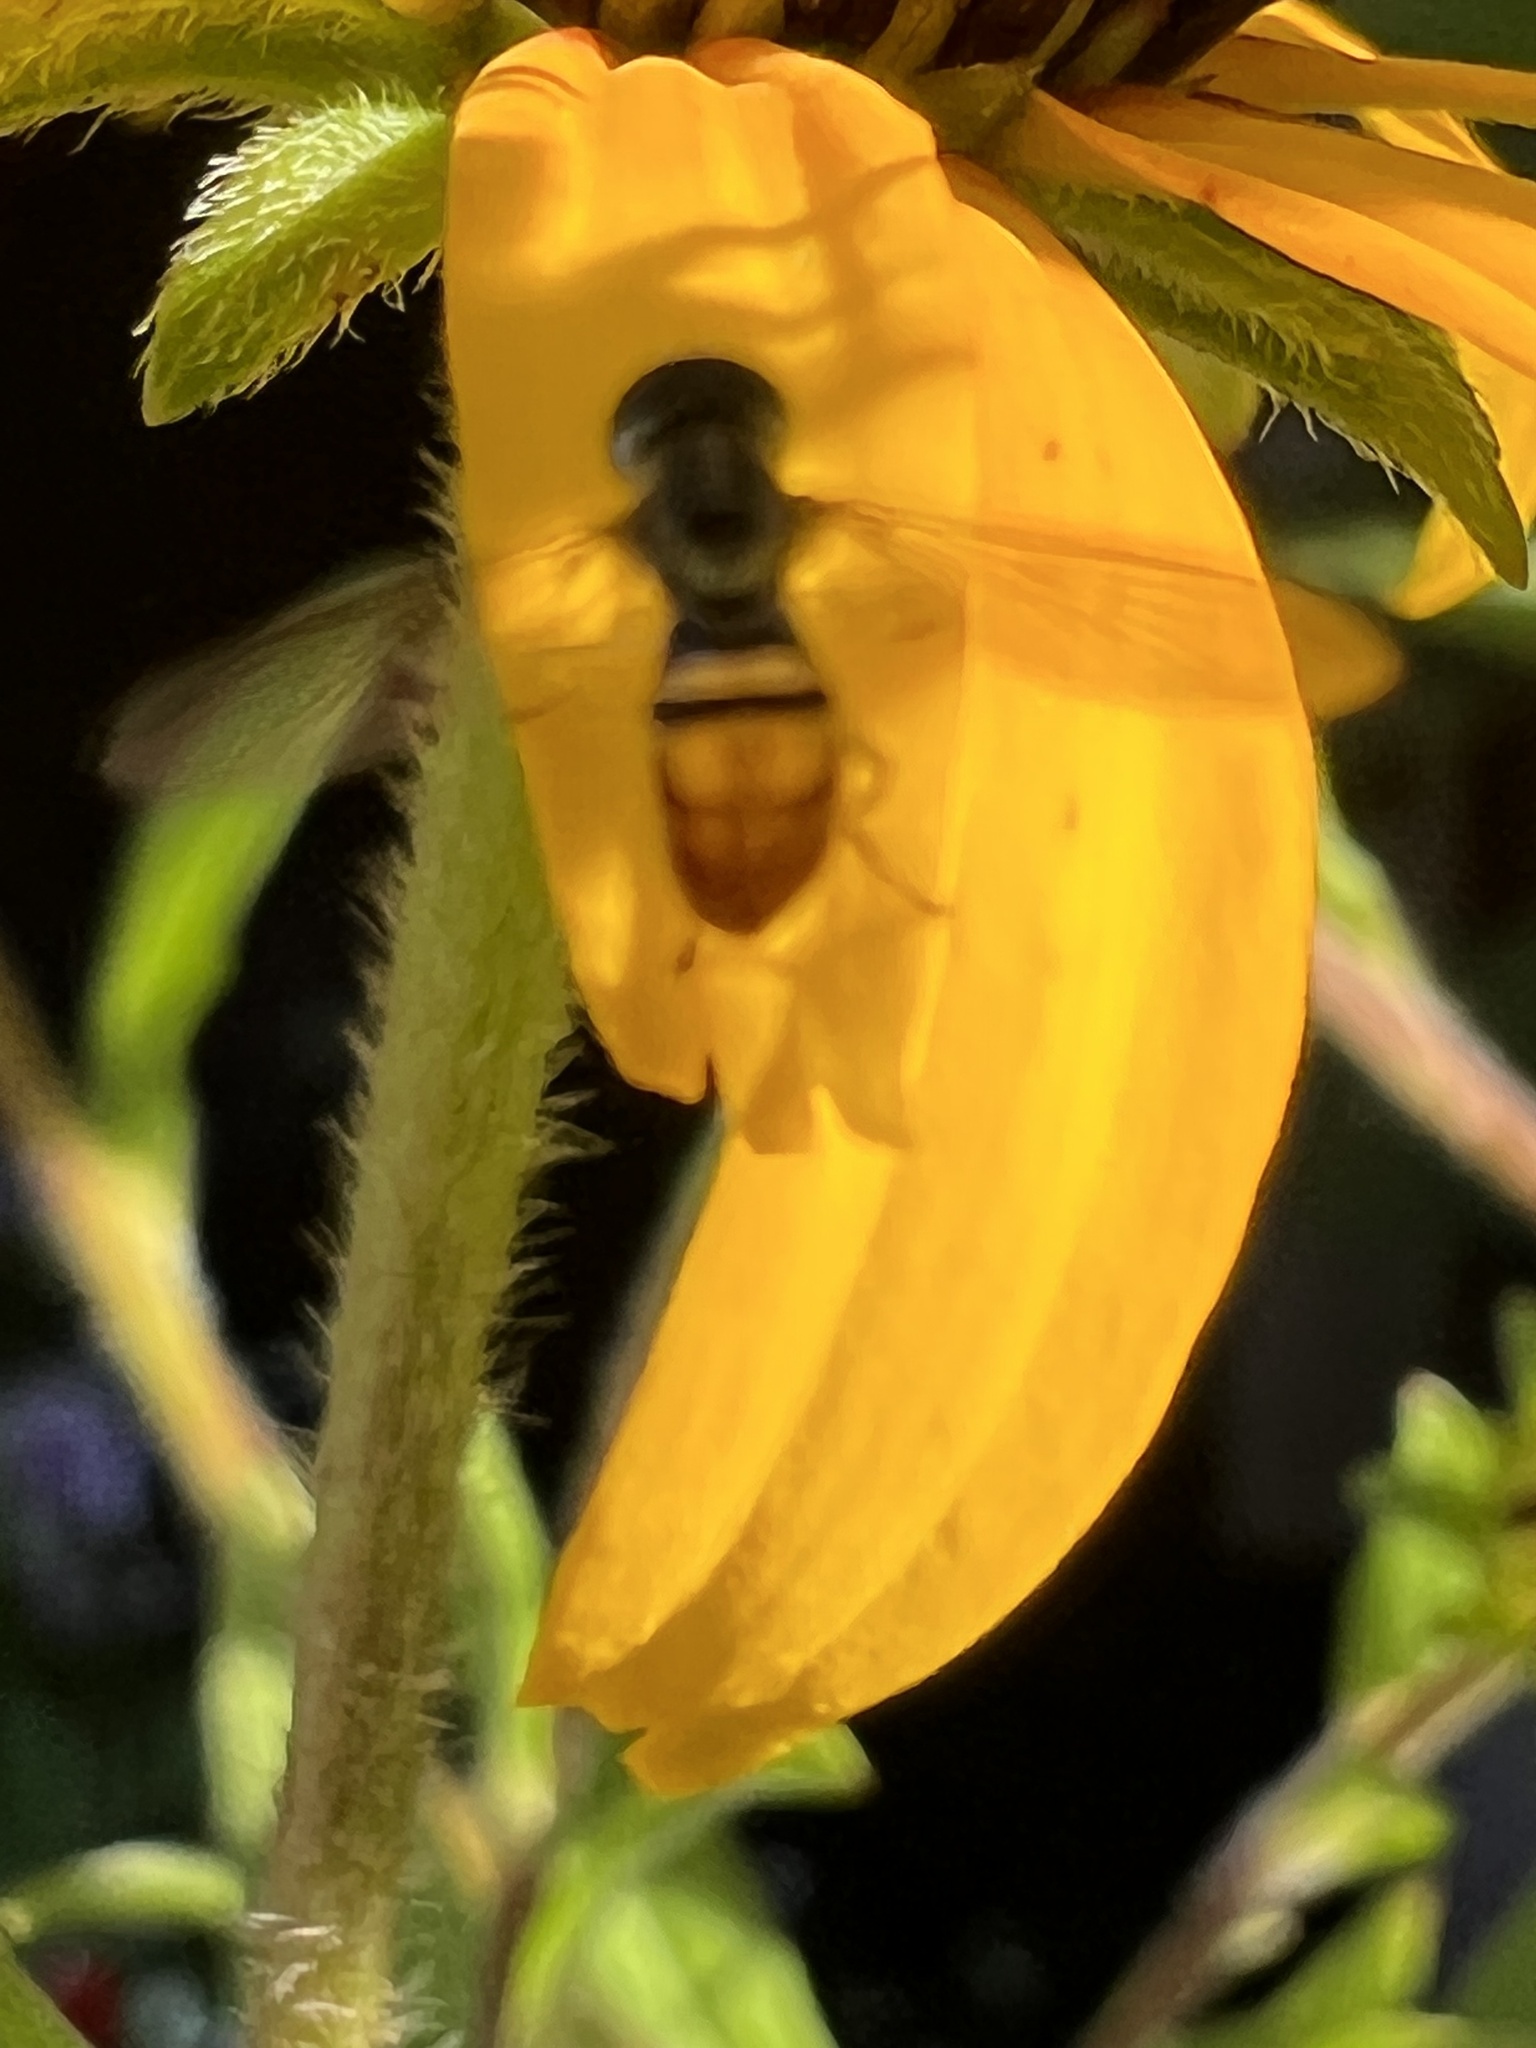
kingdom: Animalia
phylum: Arthropoda
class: Insecta
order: Diptera
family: Syrphidae
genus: Toxomerus
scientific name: Toxomerus marginatus
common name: Syrphid fly
